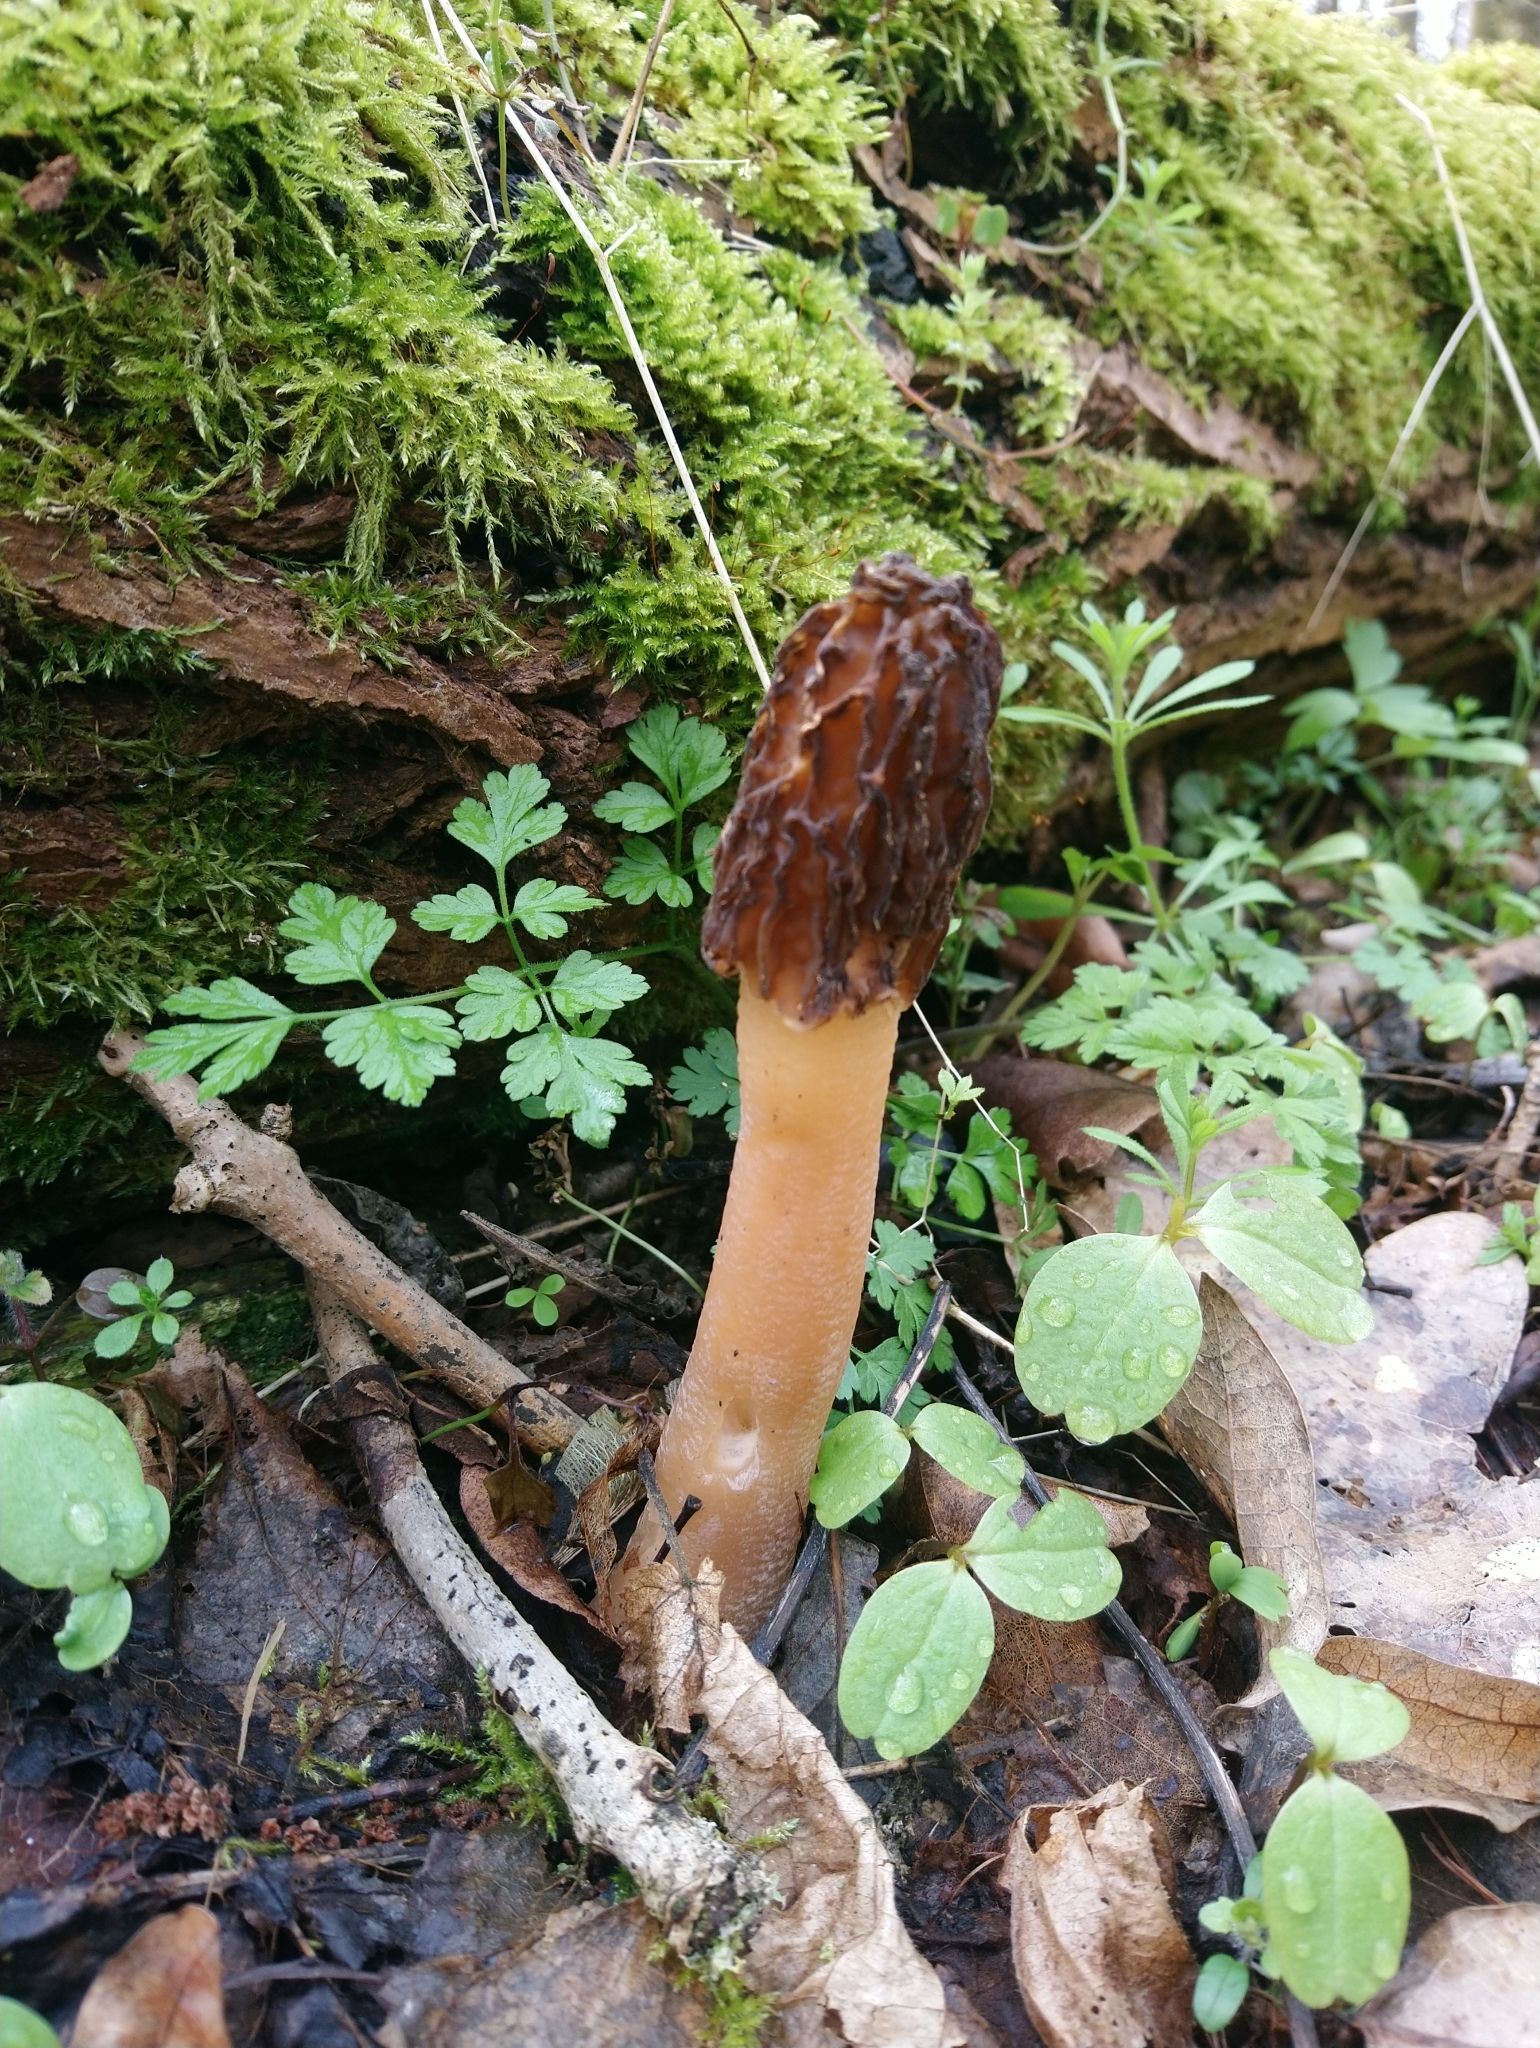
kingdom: Fungi
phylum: Ascomycota
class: Pezizomycetes
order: Pezizales
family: Morchellaceae
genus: Verpa
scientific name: Verpa bohemica
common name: Wrinkled thimble morel
